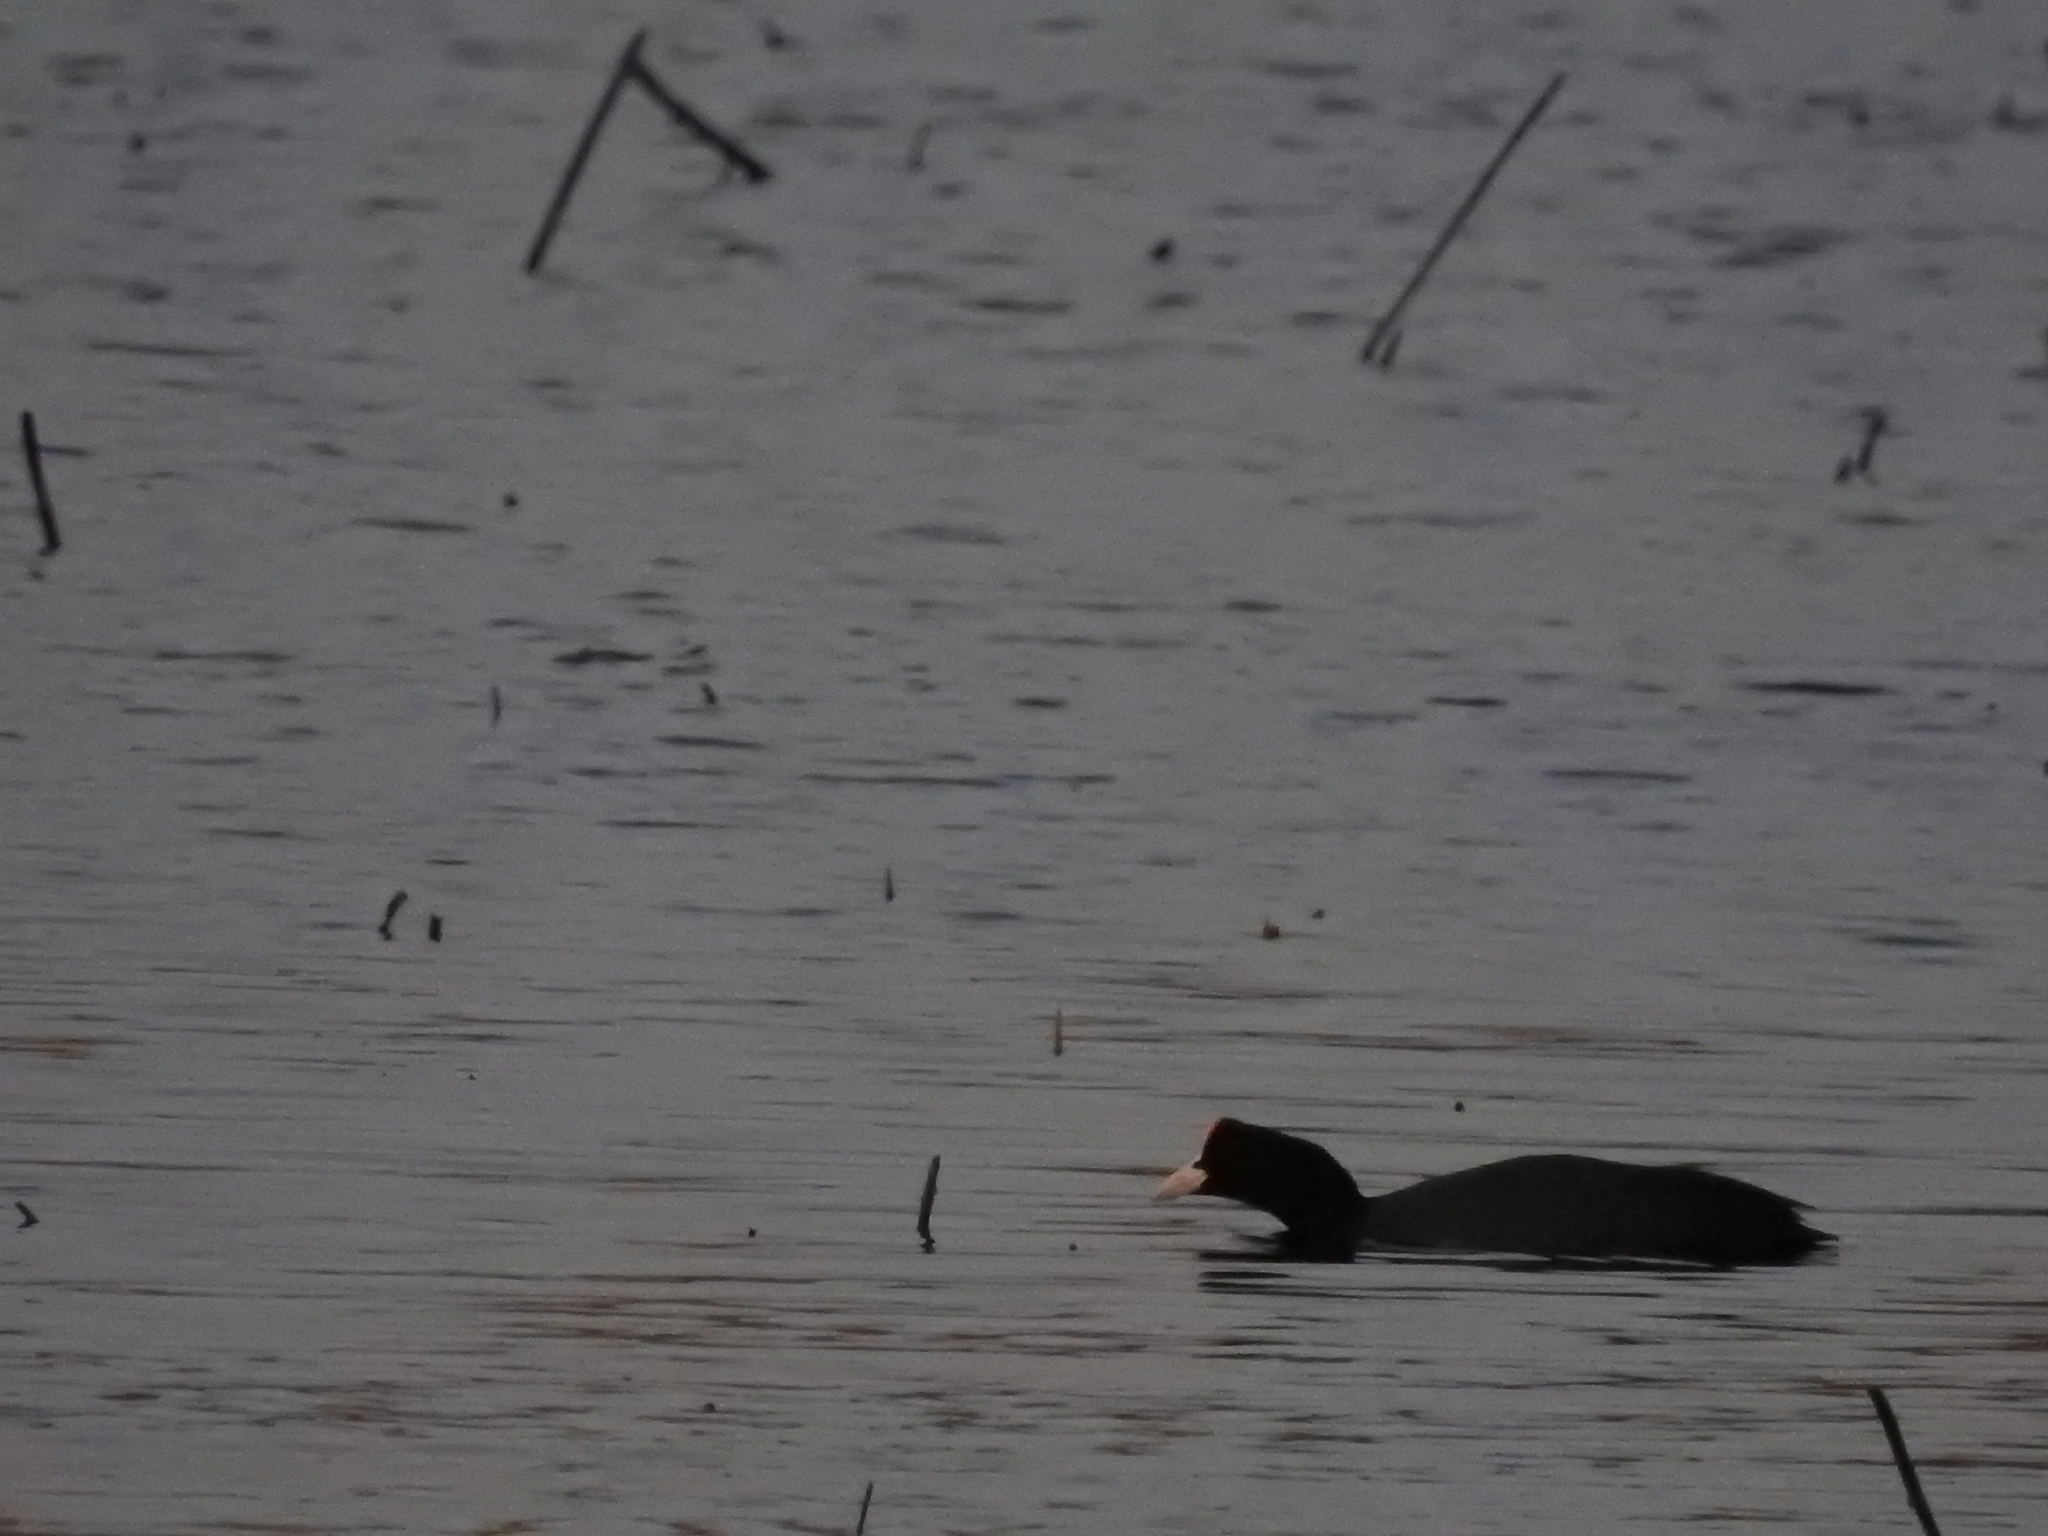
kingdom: Animalia
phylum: Chordata
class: Aves
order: Gruiformes
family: Rallidae
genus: Fulica
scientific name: Fulica atra
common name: Eurasian coot
